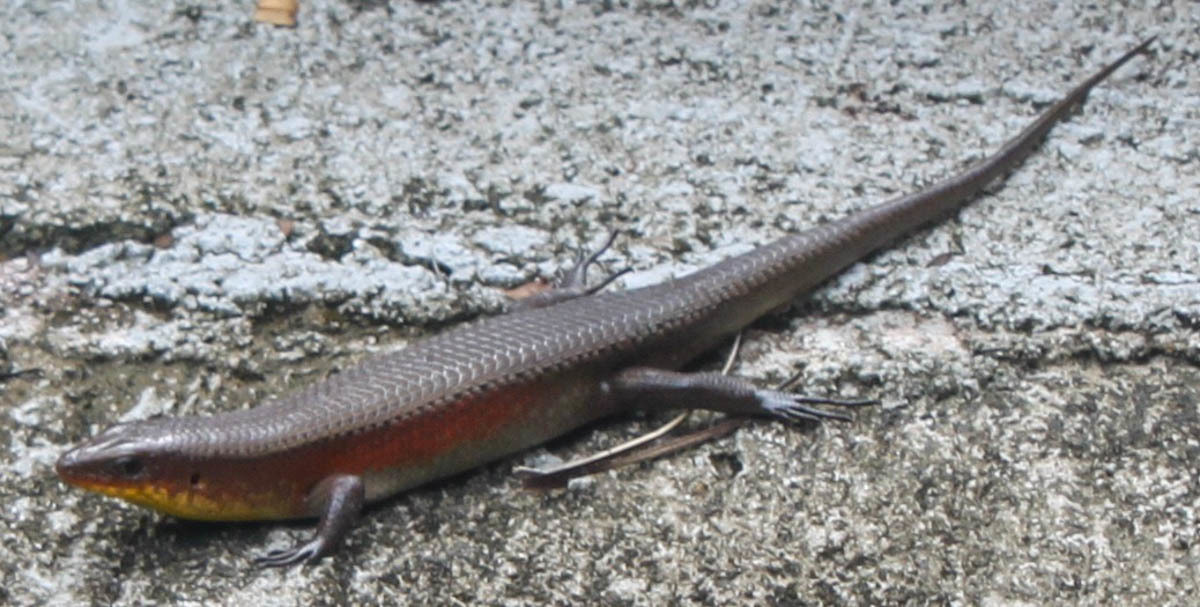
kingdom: Animalia
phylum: Chordata
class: Squamata
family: Scincidae
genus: Eutropis
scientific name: Eutropis multifasciata
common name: Common mabuya
